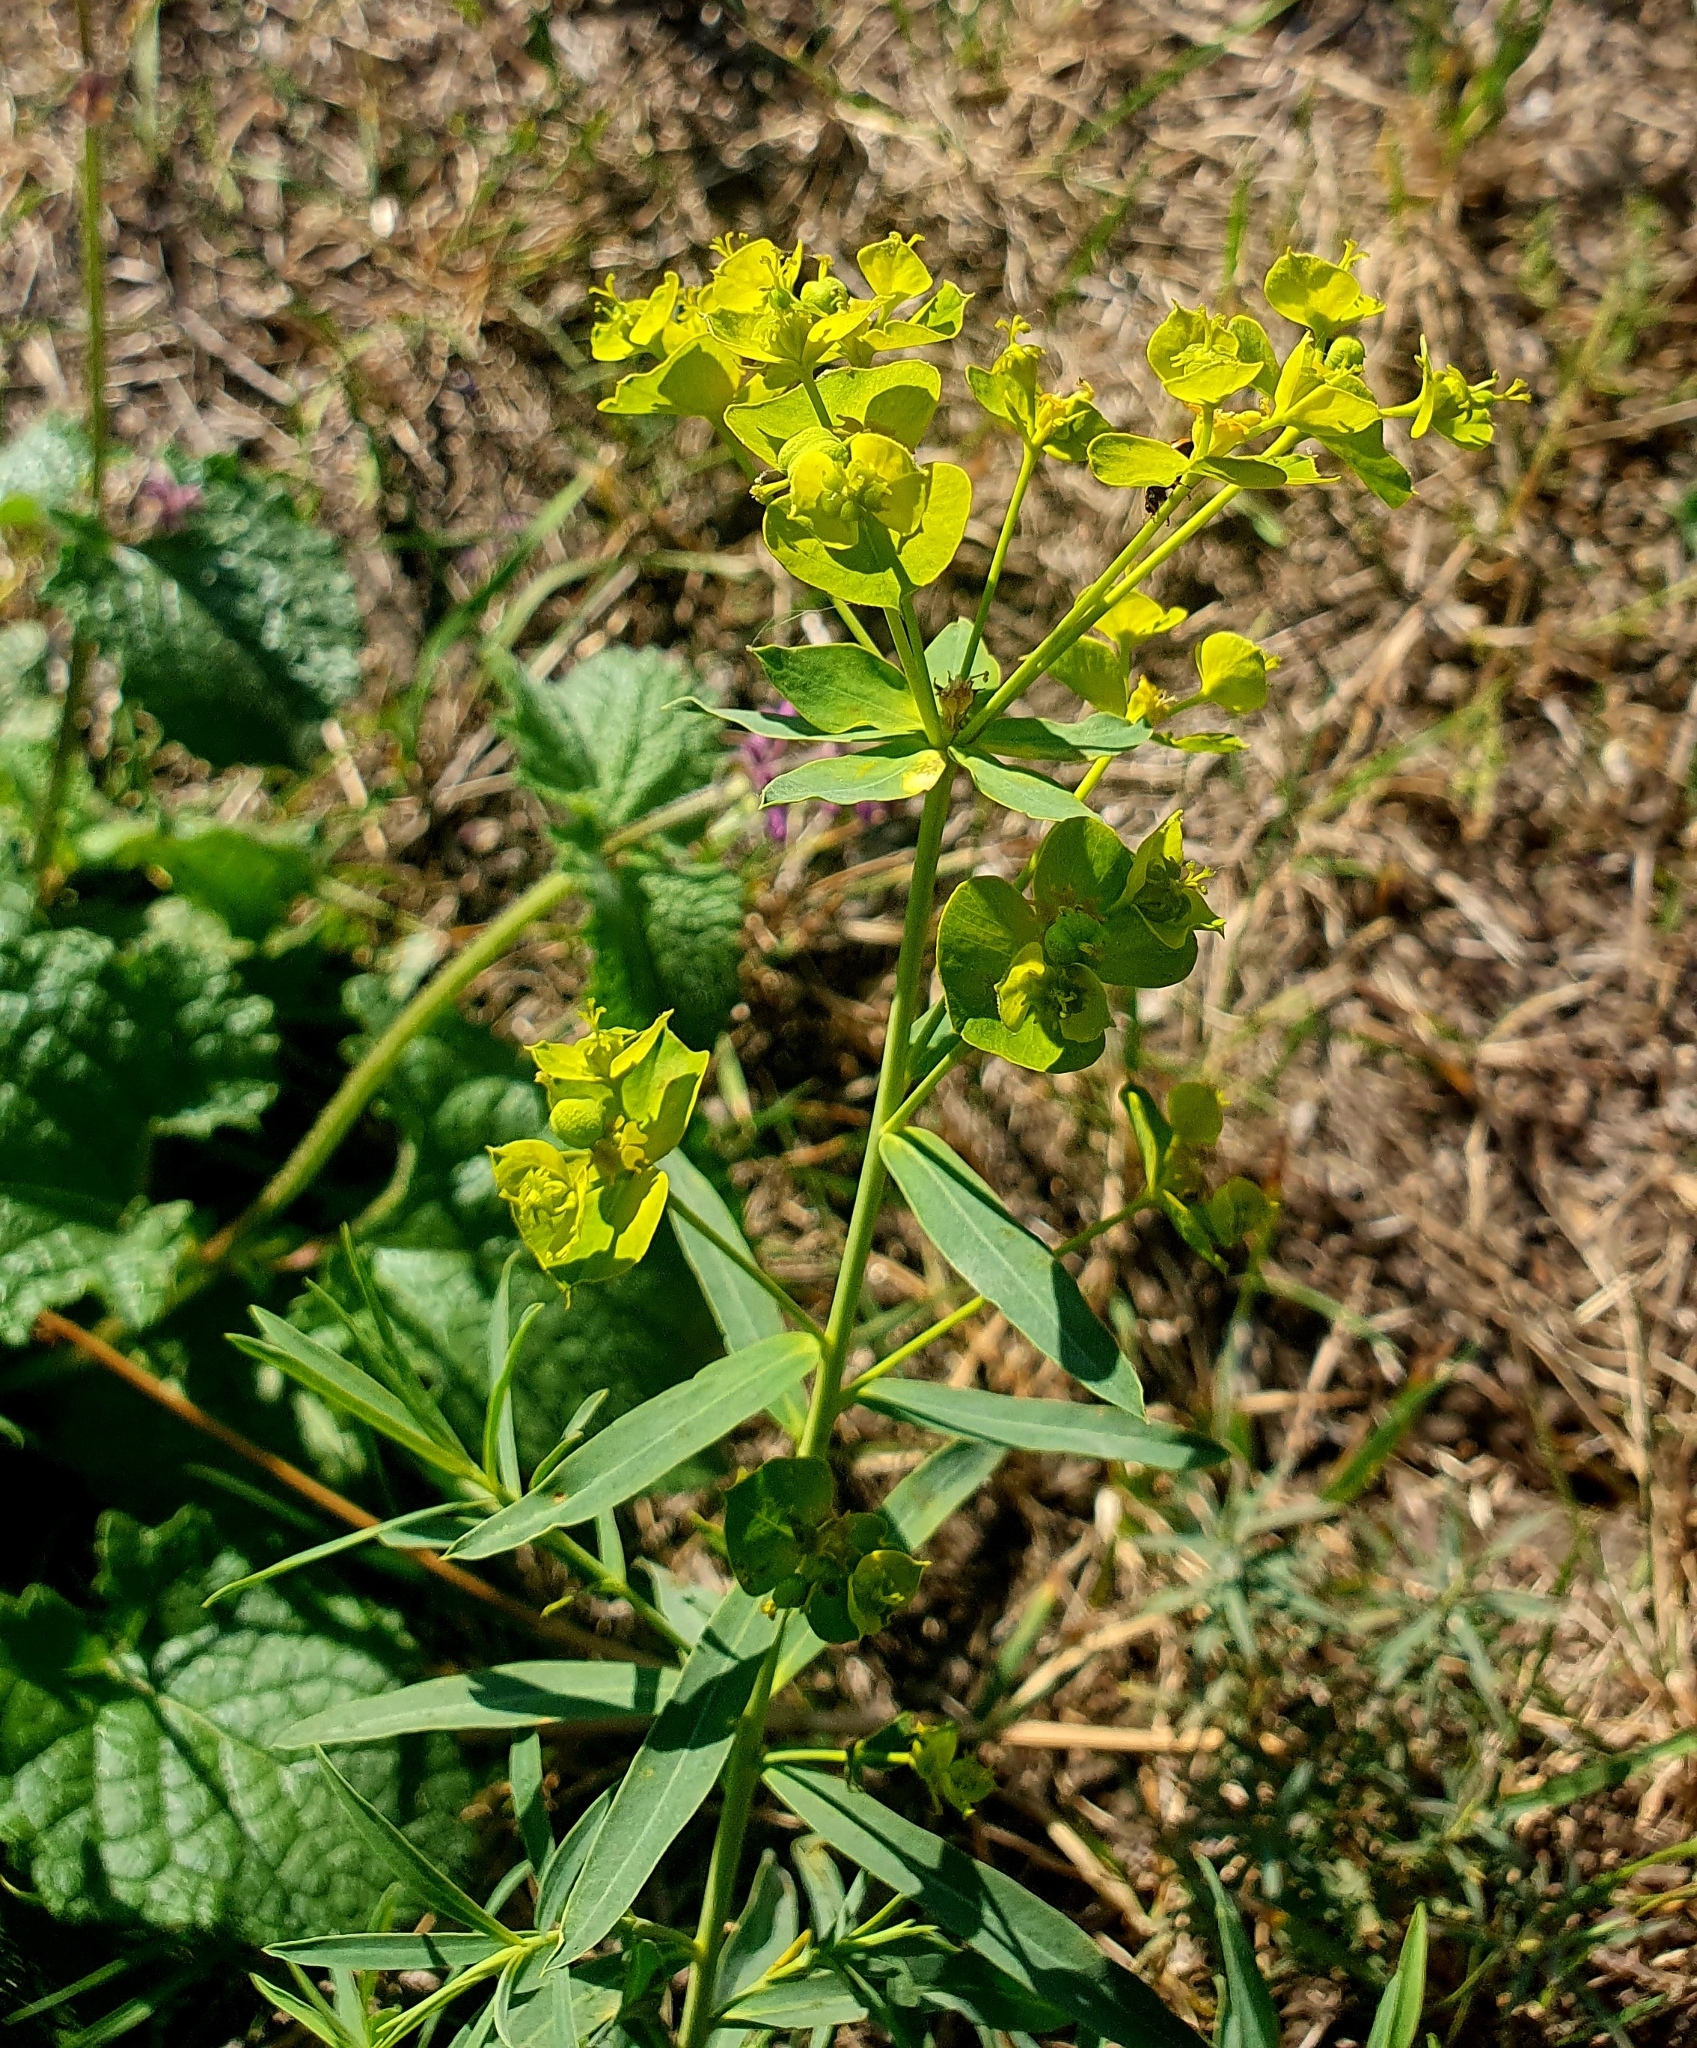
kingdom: Plantae
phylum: Tracheophyta
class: Magnoliopsida
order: Malpighiales
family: Euphorbiaceae
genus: Euphorbia
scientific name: Euphorbia virgata
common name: Leafy spurge
